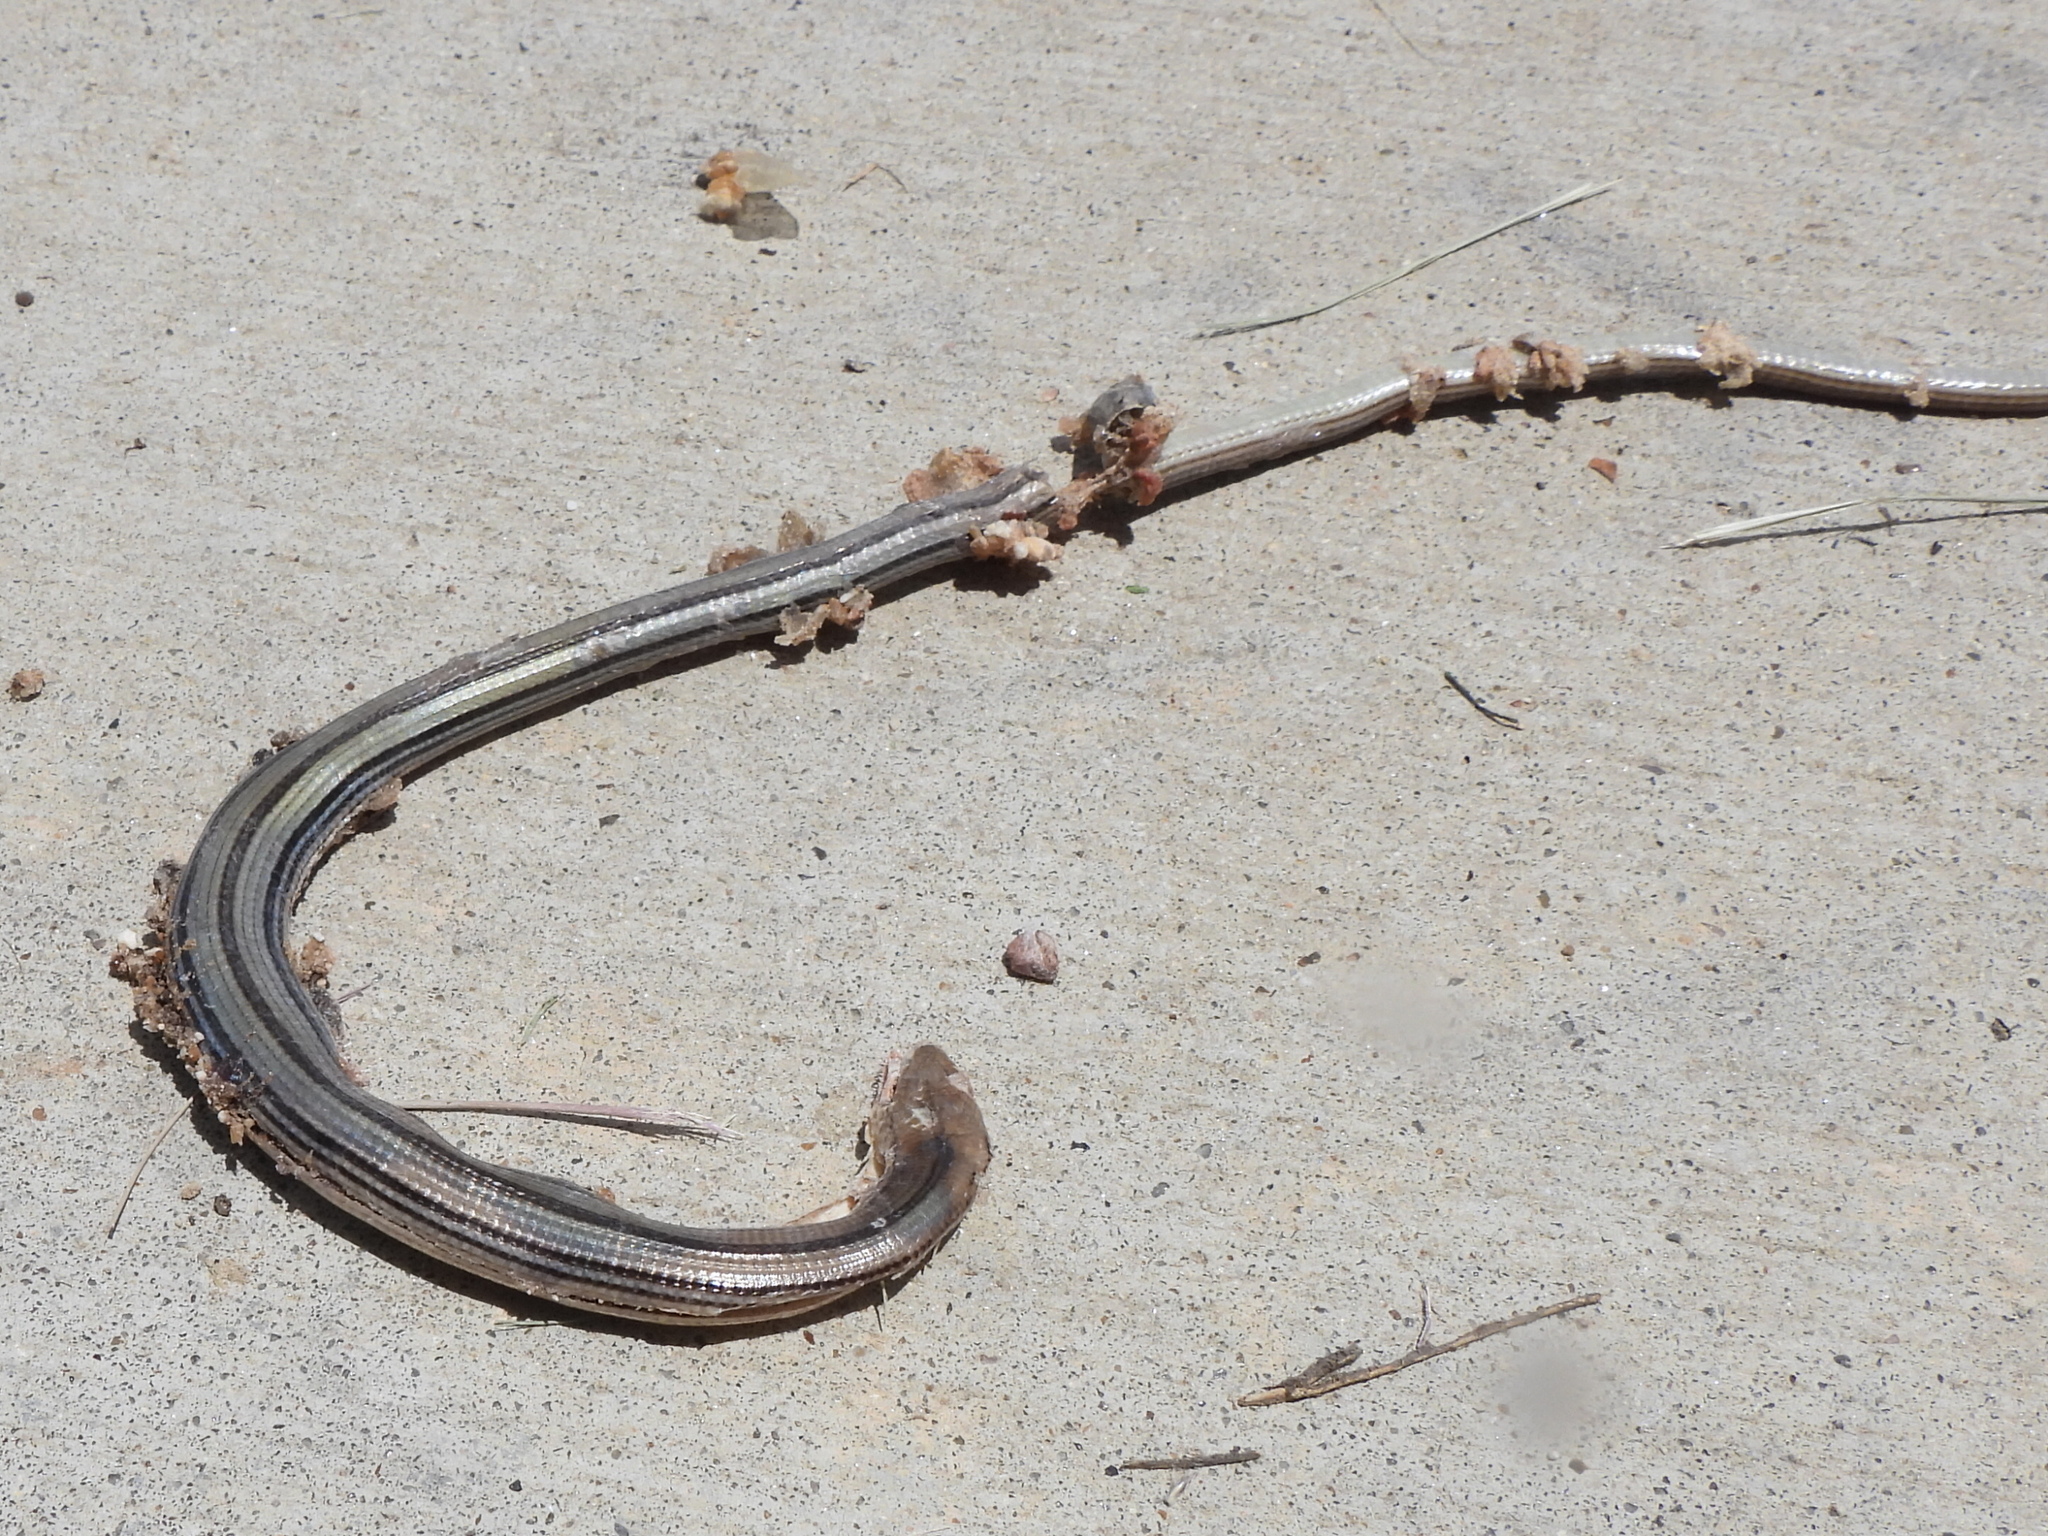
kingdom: Animalia
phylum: Chordata
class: Squamata
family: Anguidae
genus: Ophisaurus
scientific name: Ophisaurus attenuatus
